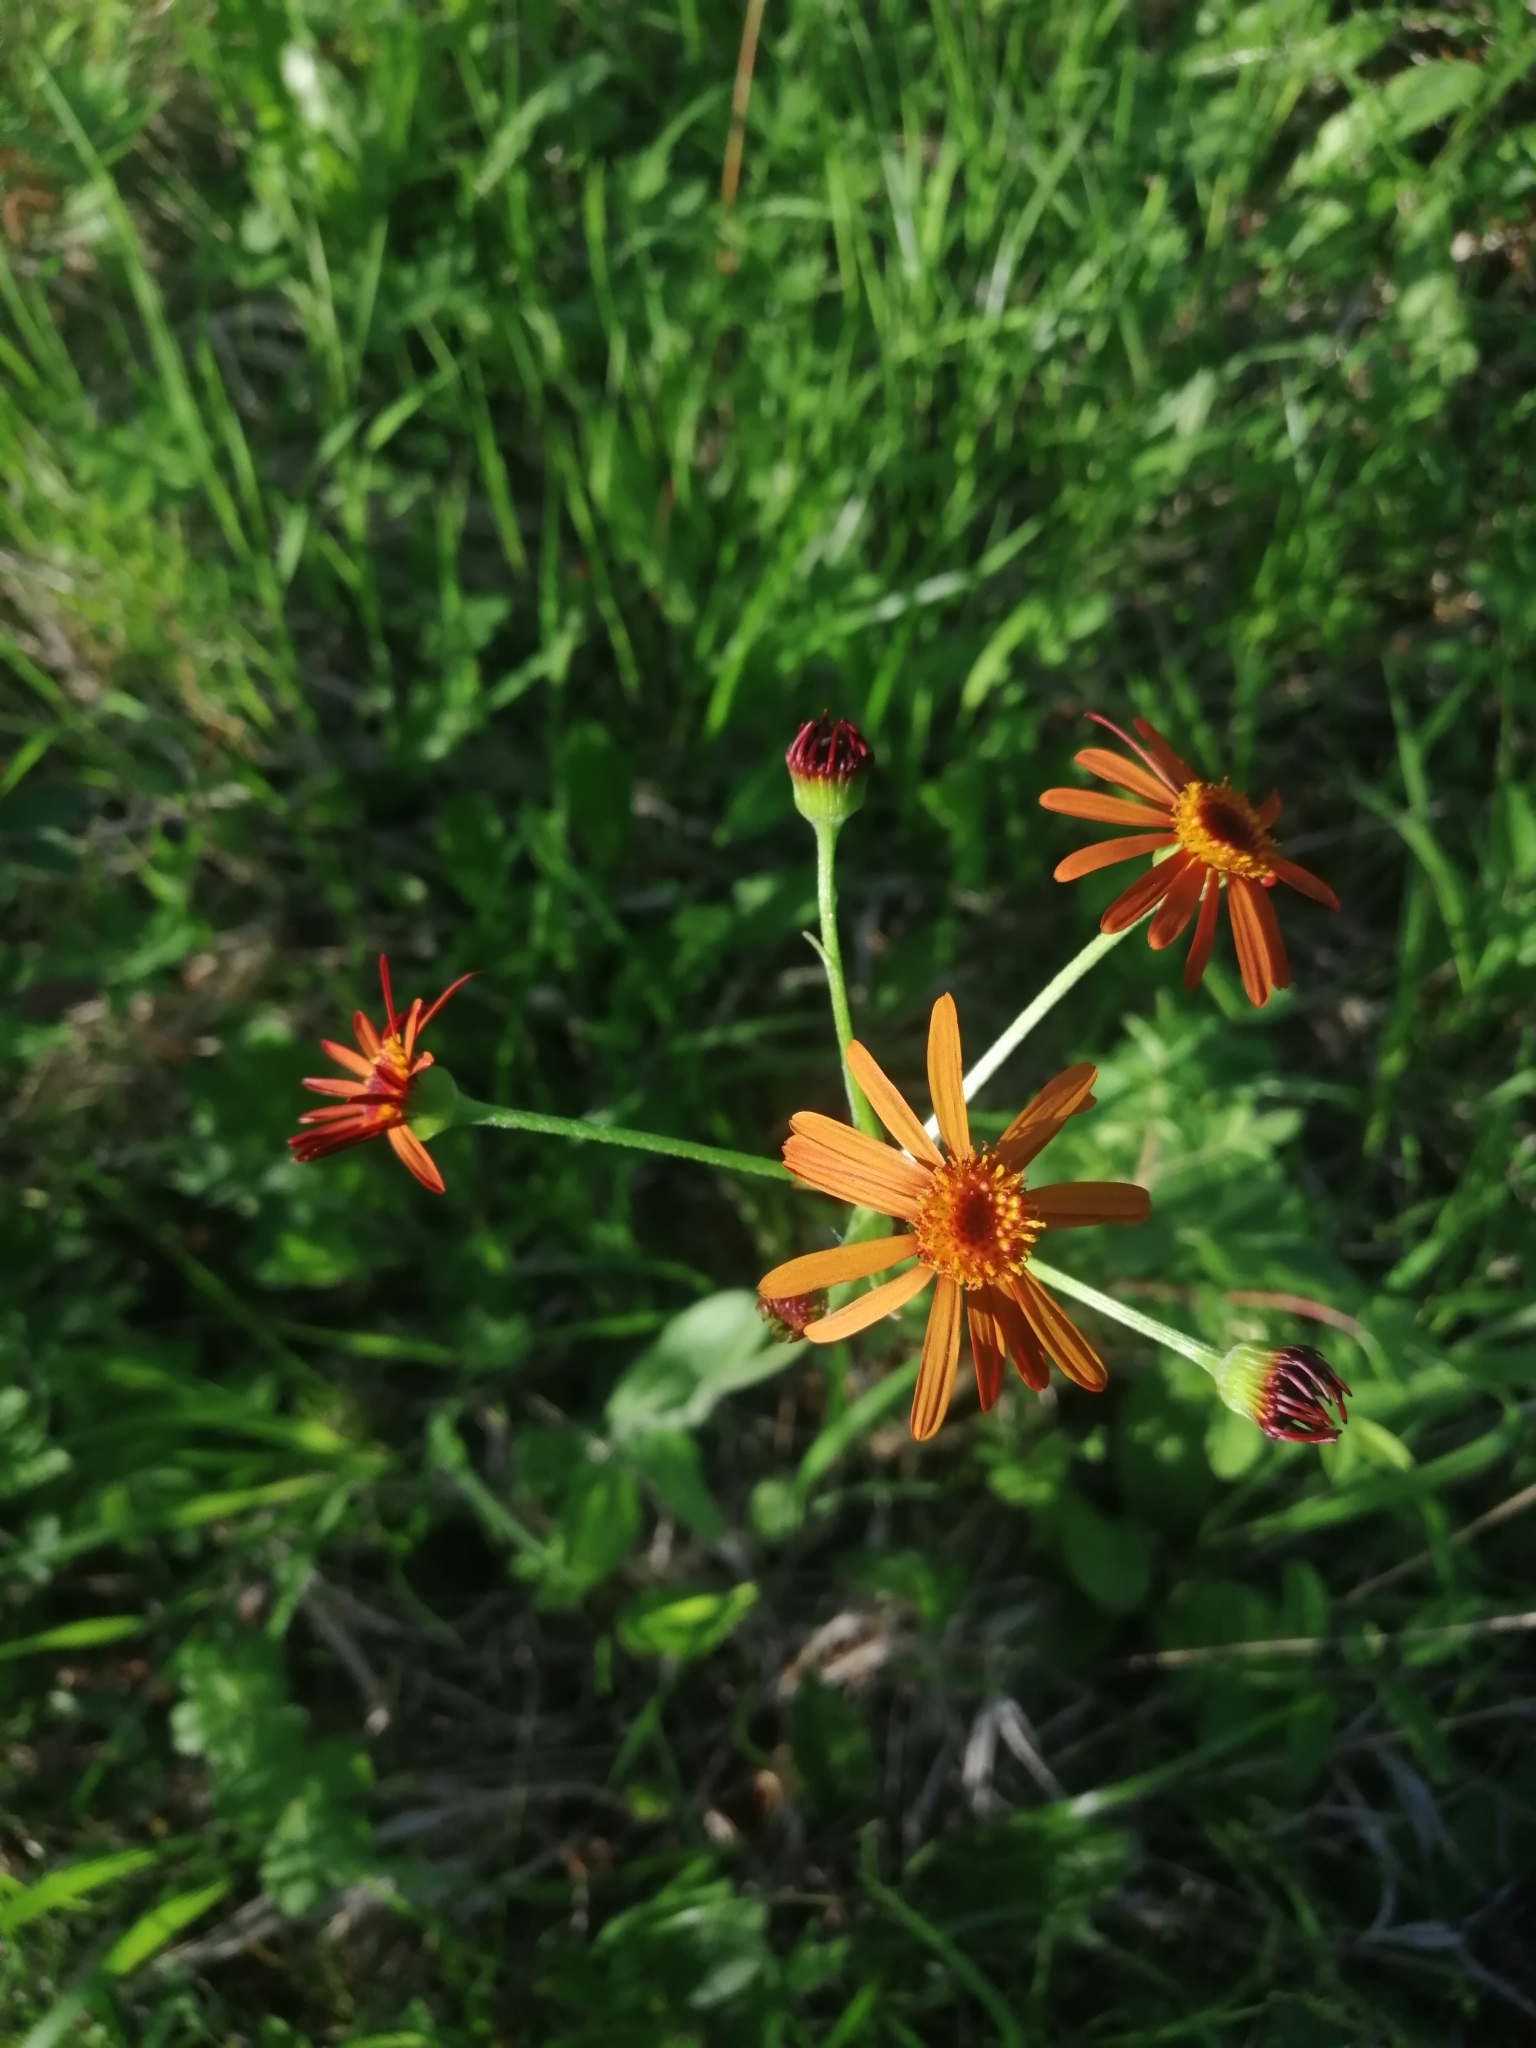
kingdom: Plantae
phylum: Tracheophyta
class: Magnoliopsida
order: Asterales
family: Asteraceae
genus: Tephroseris
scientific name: Tephroseris porphyrantha
